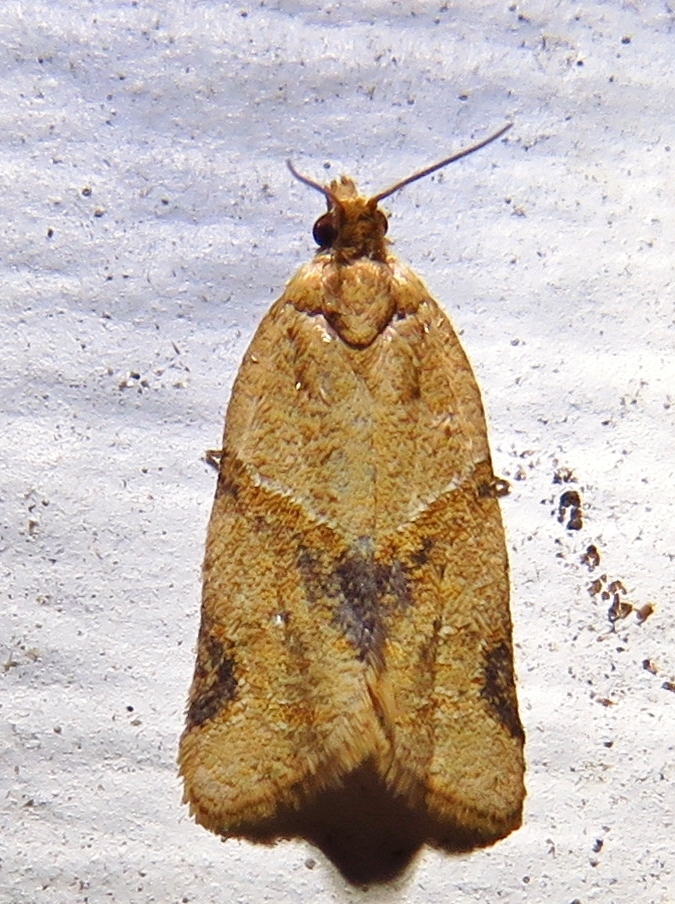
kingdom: Animalia
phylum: Arthropoda
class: Insecta
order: Lepidoptera
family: Tortricidae
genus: Clepsis
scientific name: Clepsis peritana
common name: Garden tortrix
